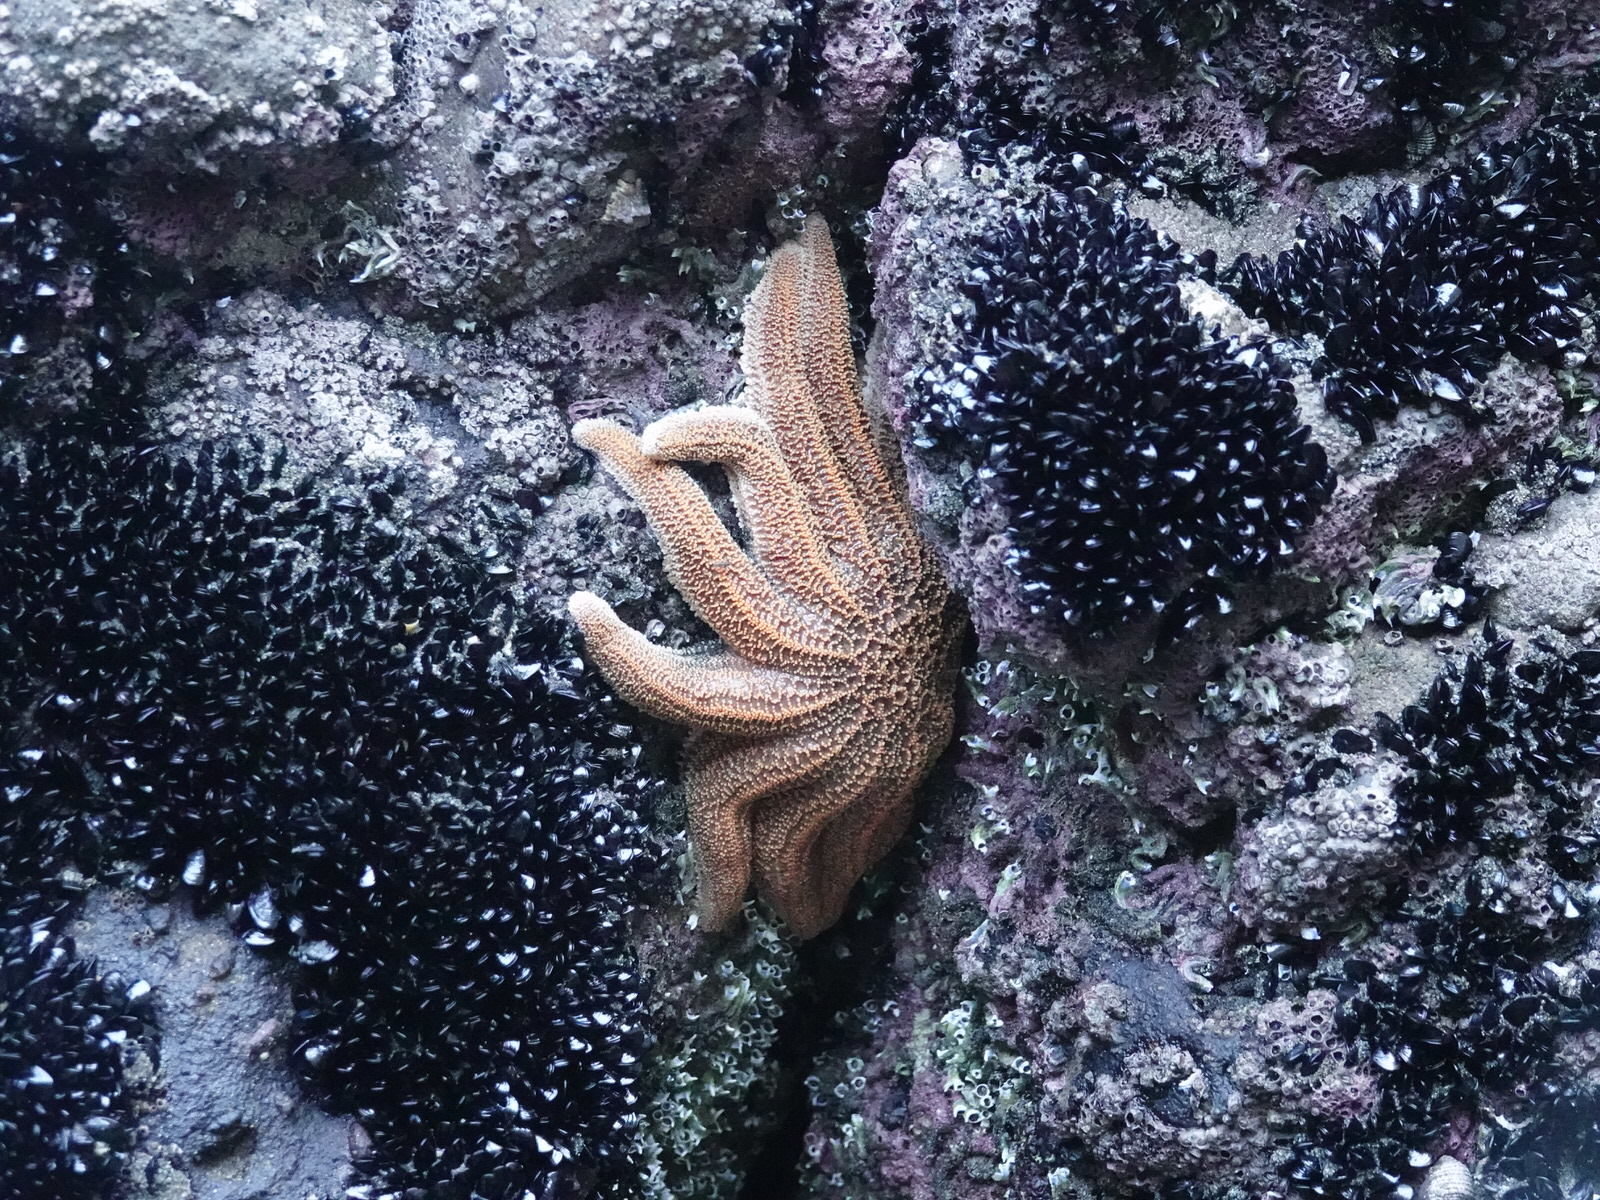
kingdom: Animalia
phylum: Echinodermata
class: Asteroidea
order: Forcipulatida
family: Stichasteridae
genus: Stichaster
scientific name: Stichaster australis
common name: Reef starfish
